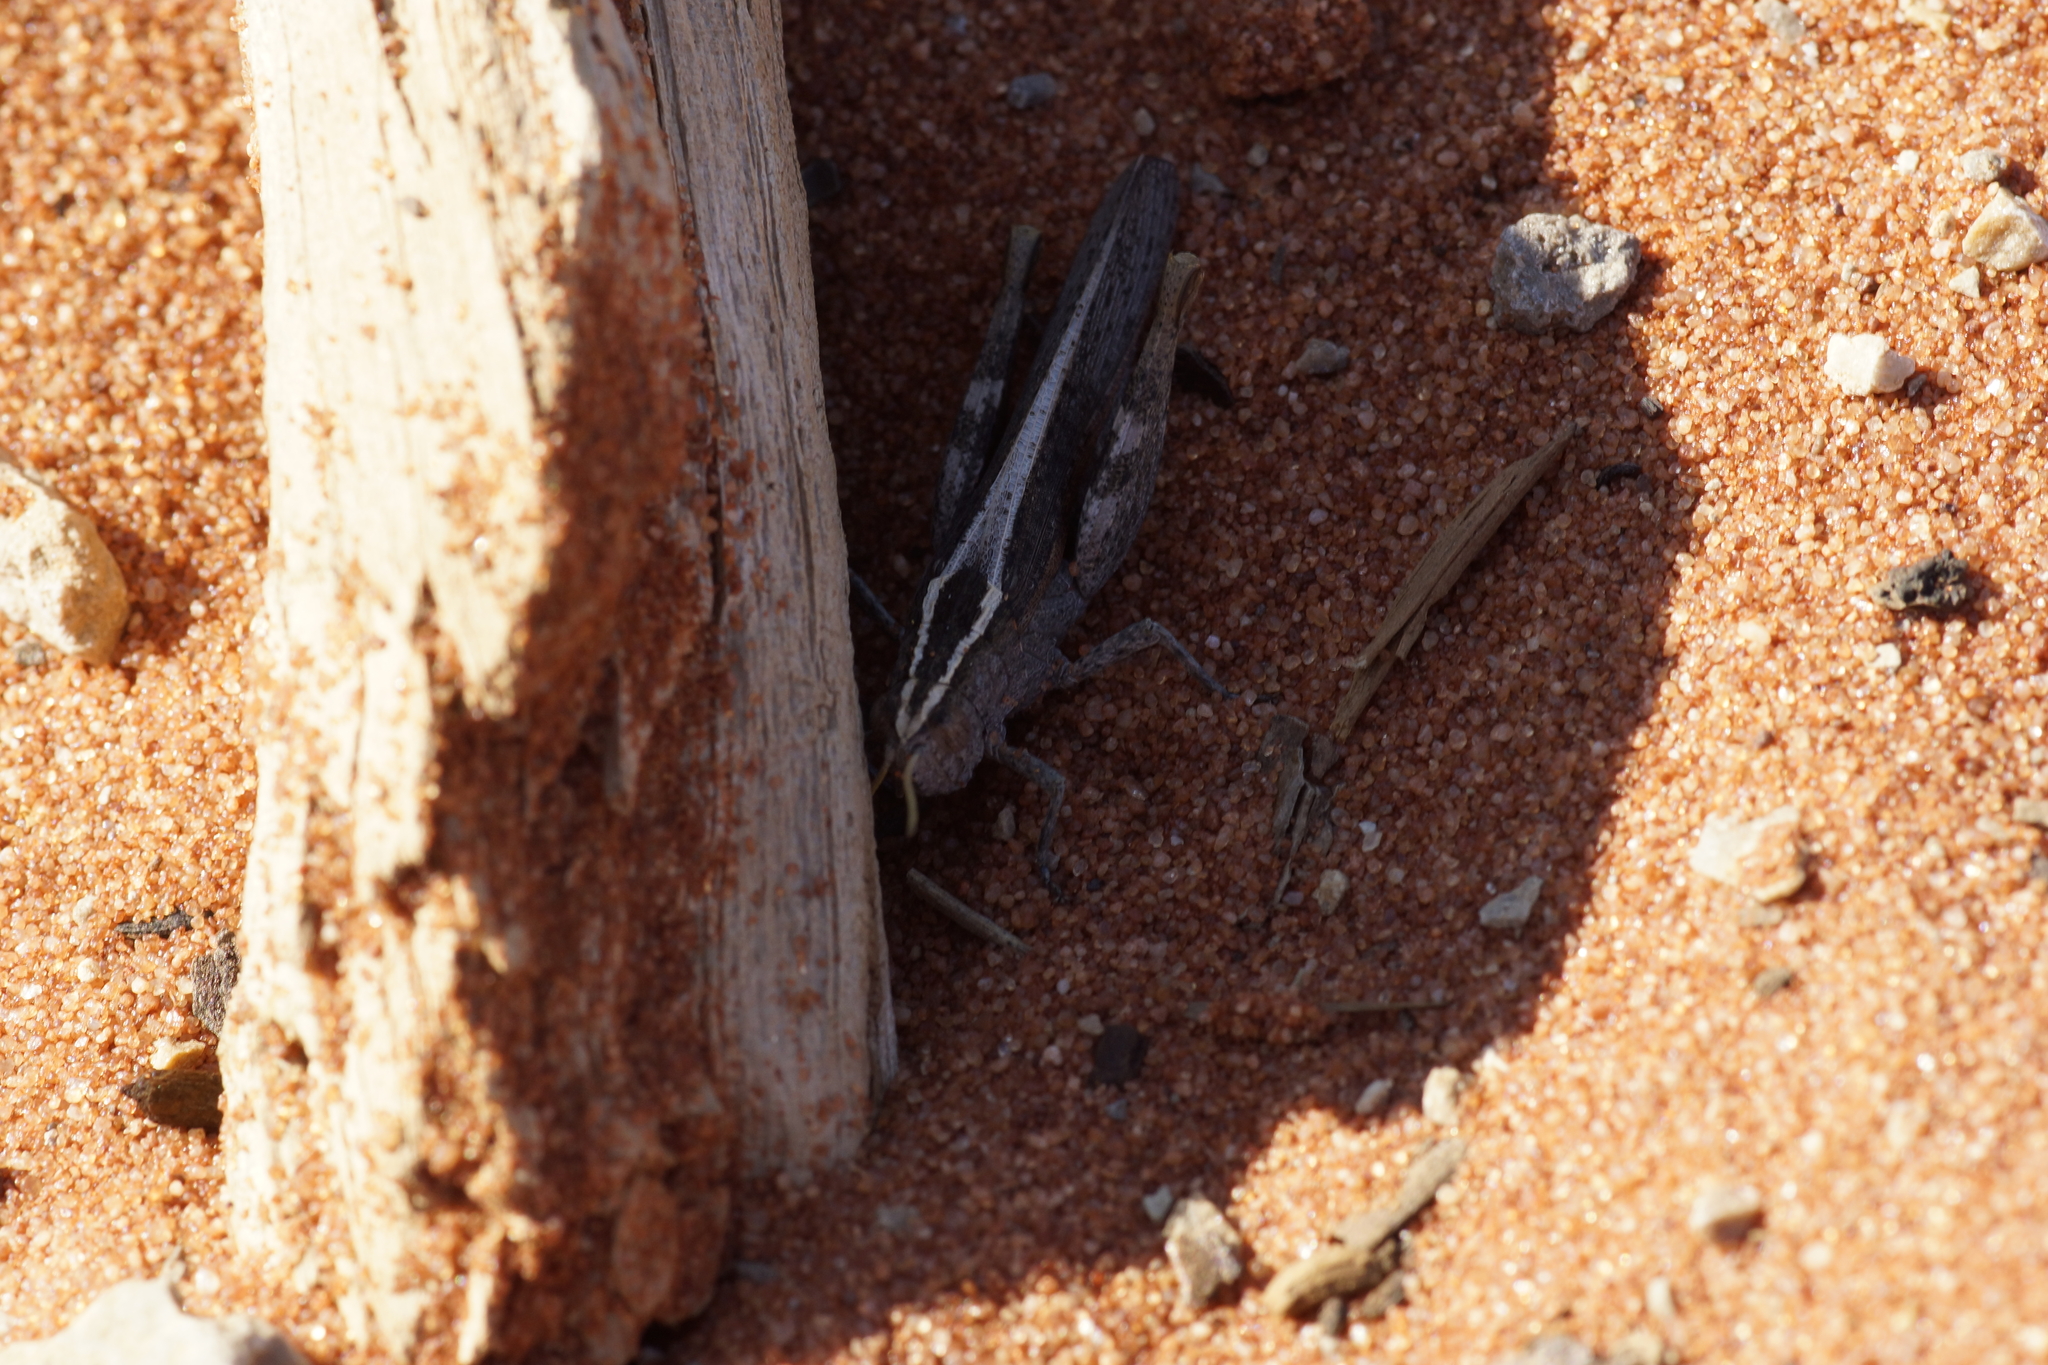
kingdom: Animalia
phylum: Arthropoda
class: Insecta
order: Orthoptera
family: Acrididae
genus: Apotropis
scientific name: Apotropis vittata
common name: Common striped grasshopper
